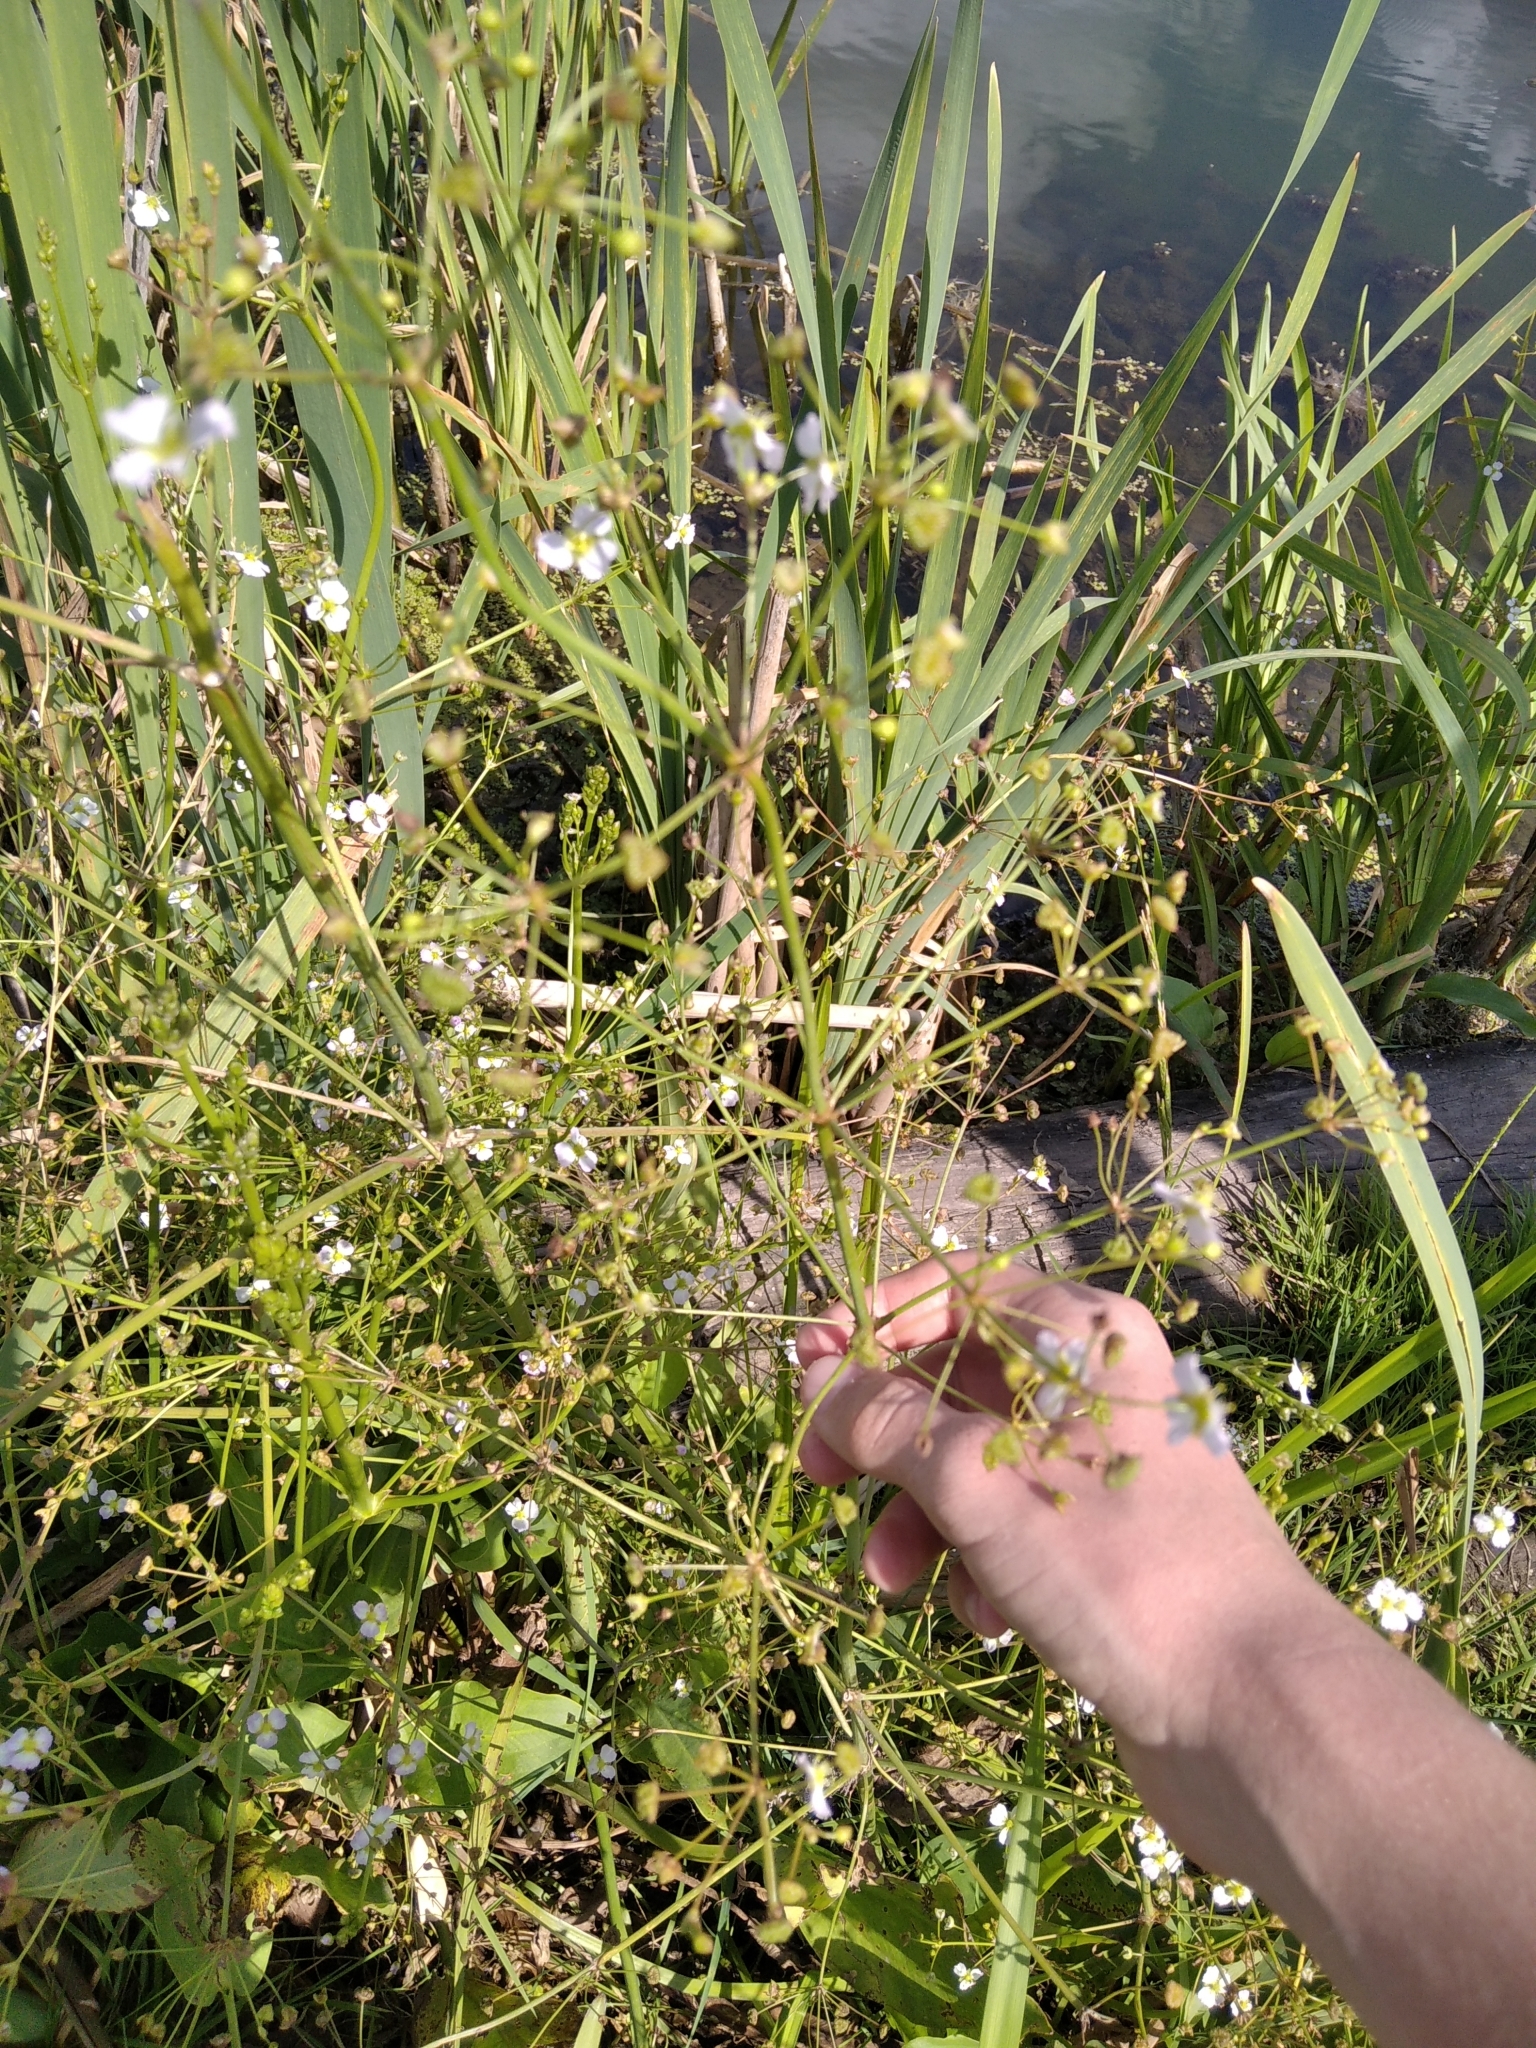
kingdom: Plantae
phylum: Tracheophyta
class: Liliopsida
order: Alismatales
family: Alismataceae
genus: Alisma
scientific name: Alisma plantago-aquatica
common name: Water-plantain
